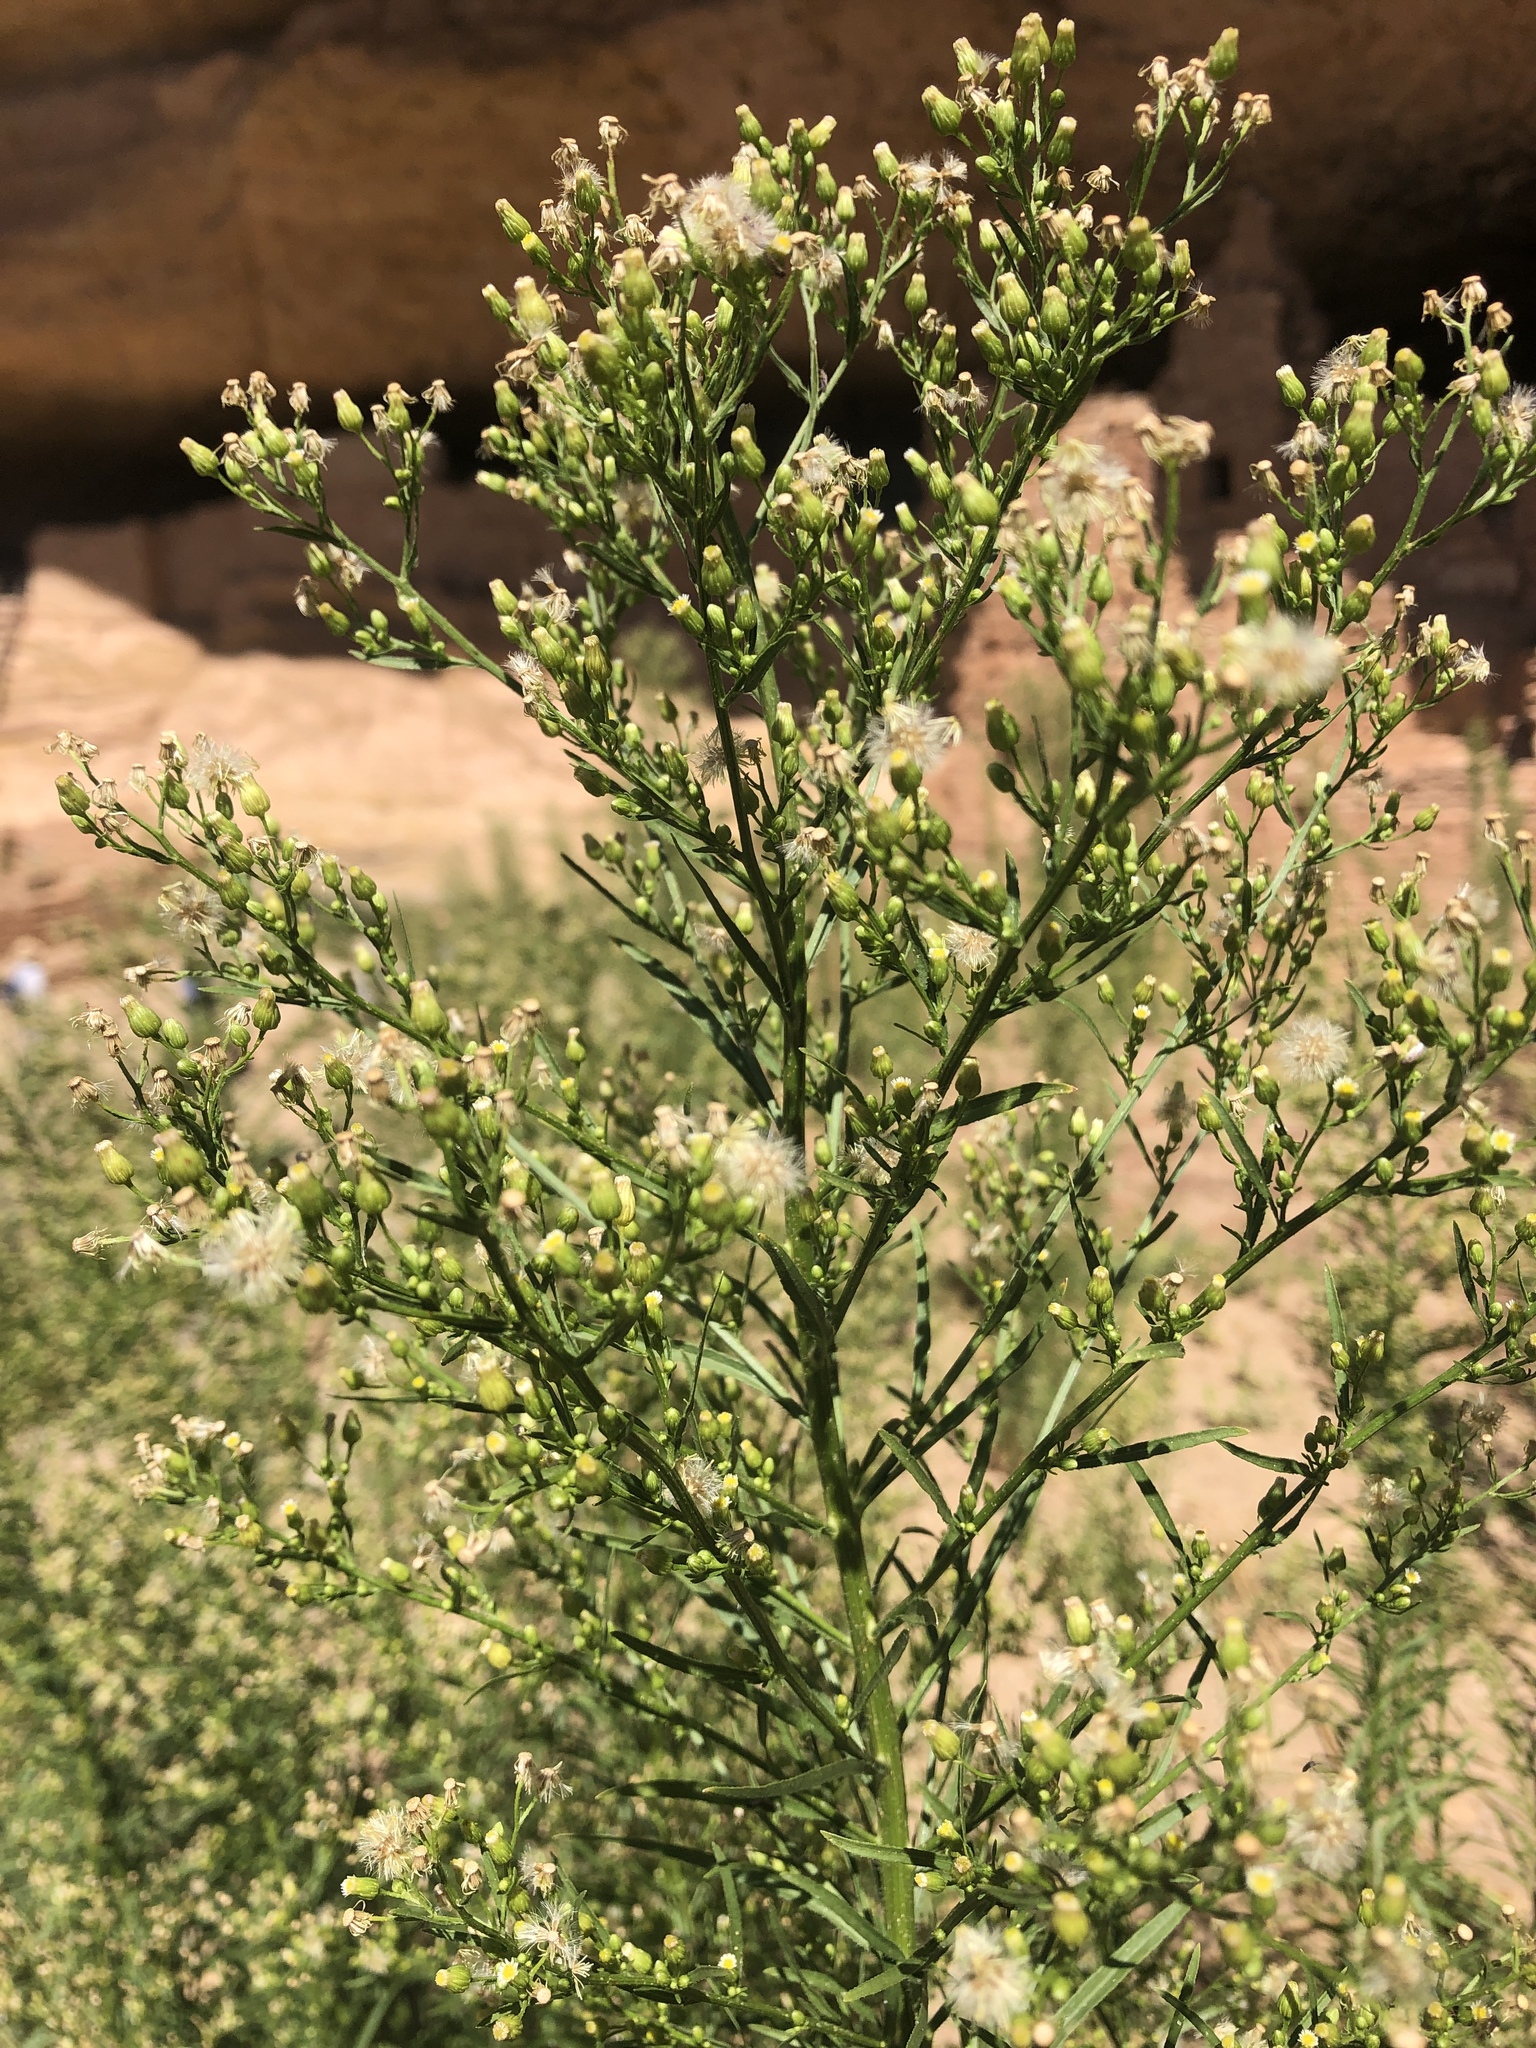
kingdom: Plantae
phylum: Tracheophyta
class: Magnoliopsida
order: Asterales
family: Asteraceae
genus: Erigeron
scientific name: Erigeron canadensis
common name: Canadian fleabane
